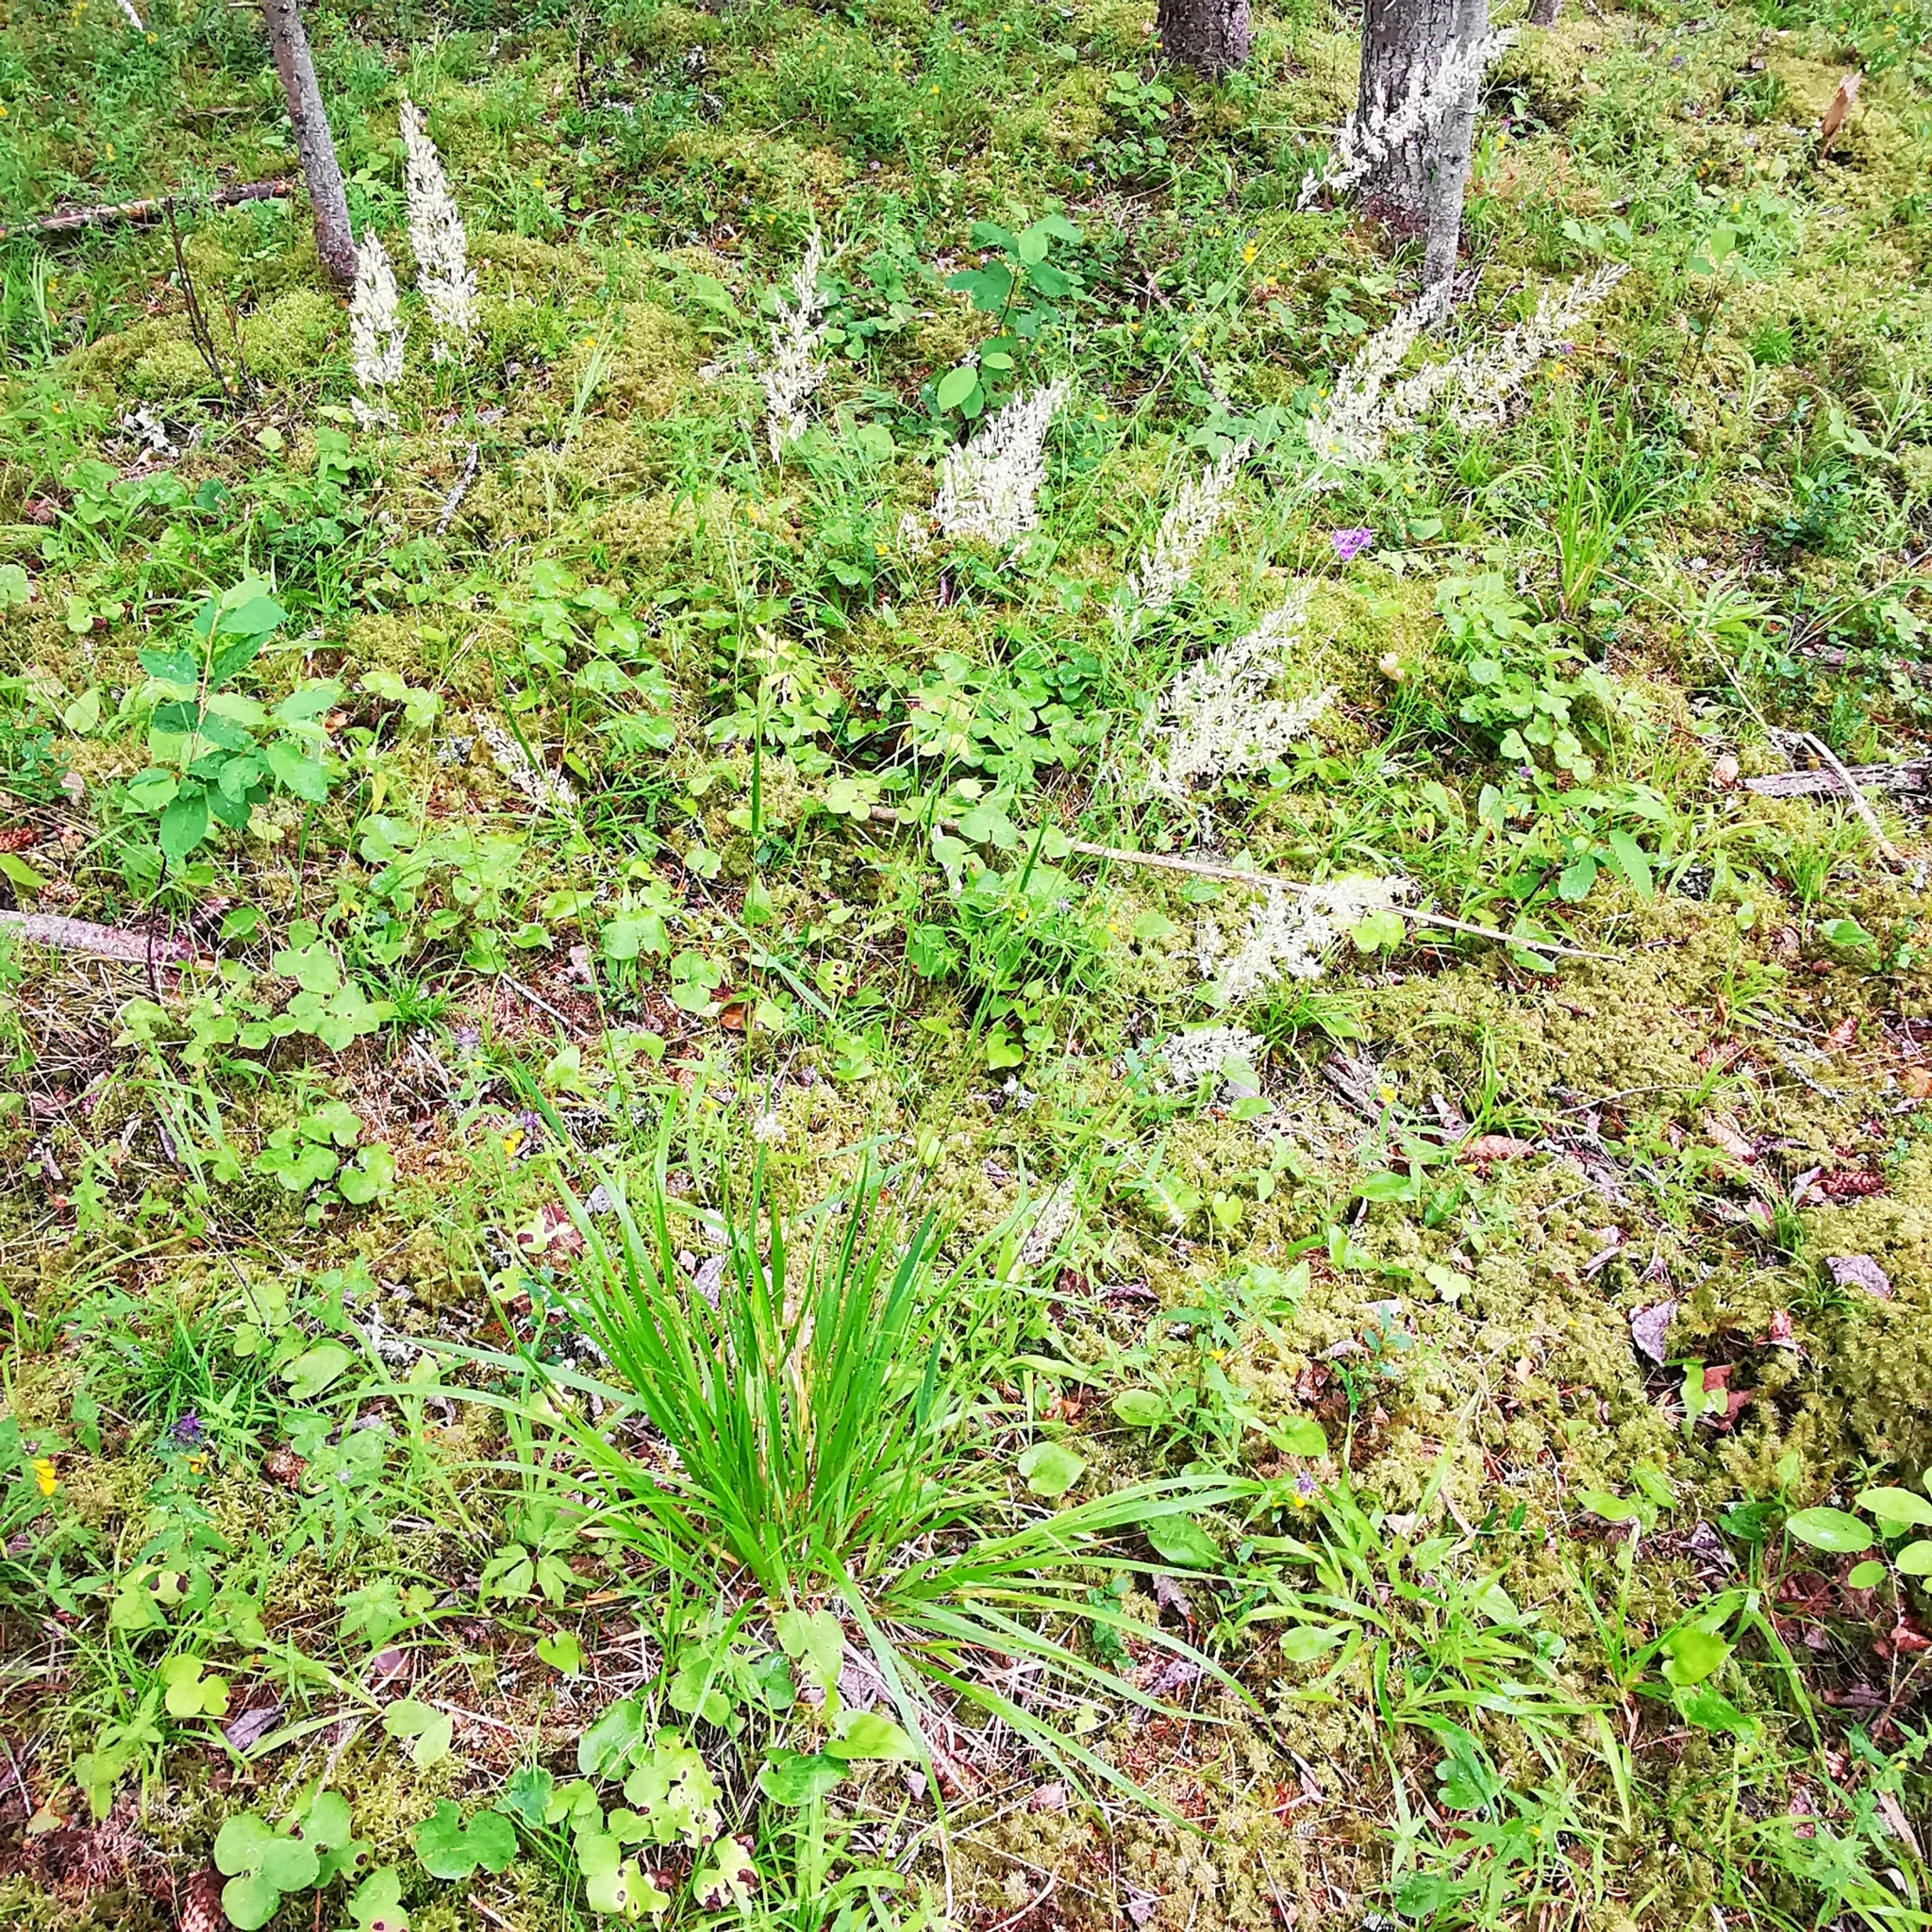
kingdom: Plantae
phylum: Tracheophyta
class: Liliopsida
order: Poales
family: Poaceae
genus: Calamagrostis
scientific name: Calamagrostis arundinacea
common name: Metskastik
